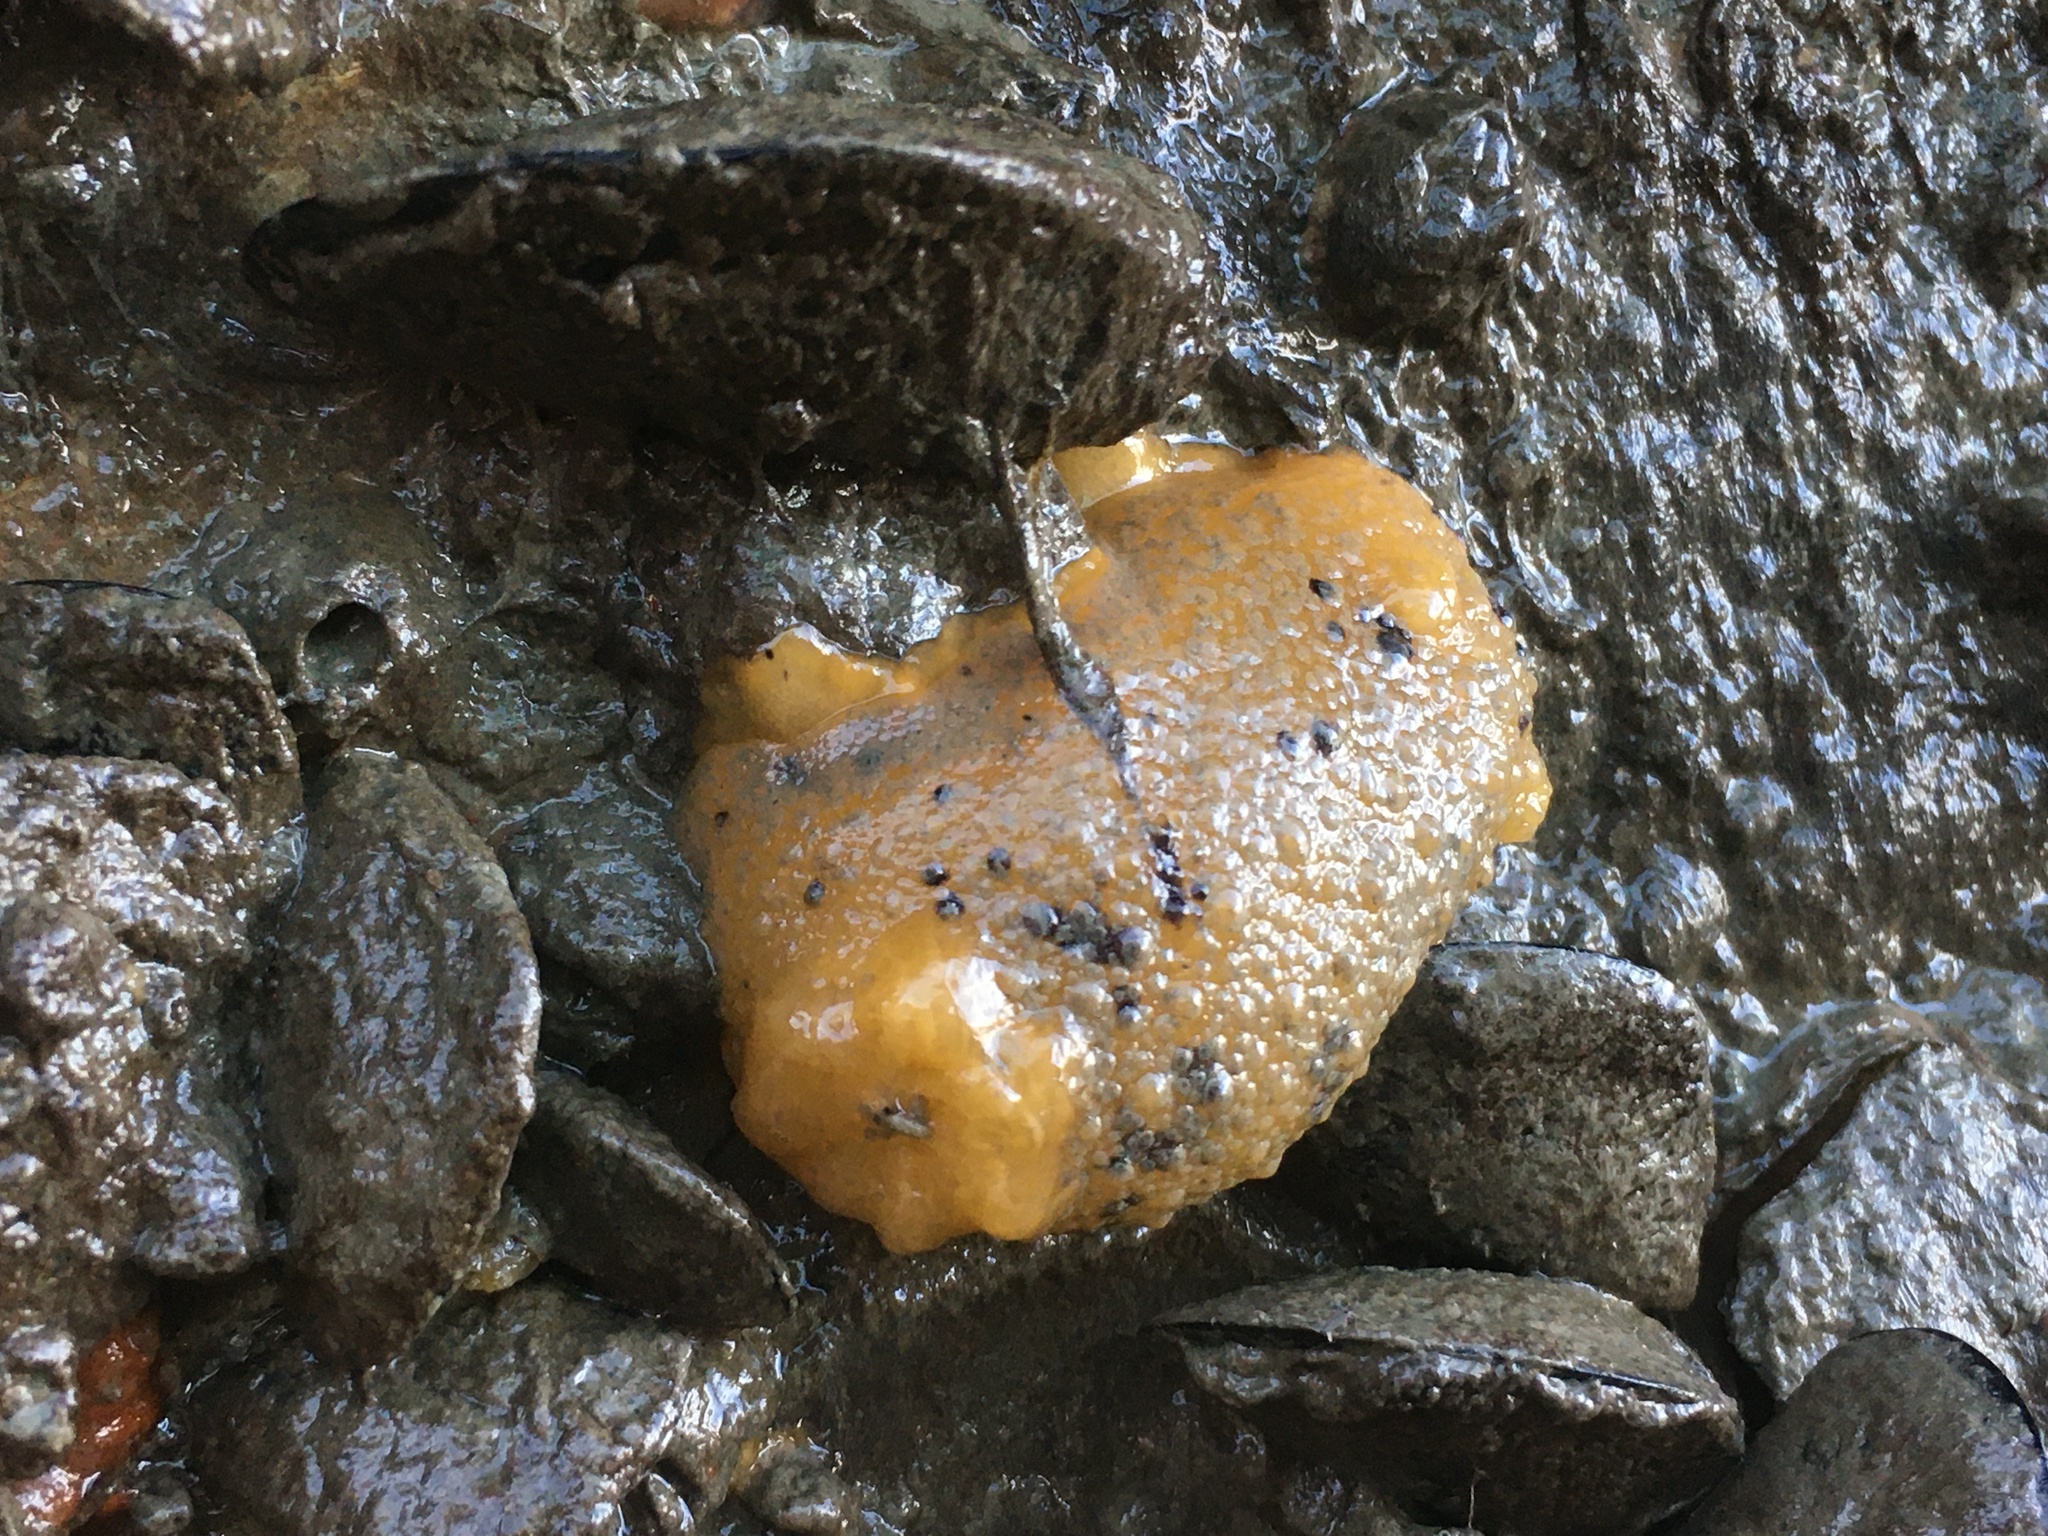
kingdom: Animalia
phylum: Mollusca
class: Gastropoda
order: Nudibranchia
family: Dorididae
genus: Doris
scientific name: Doris montereyensis
